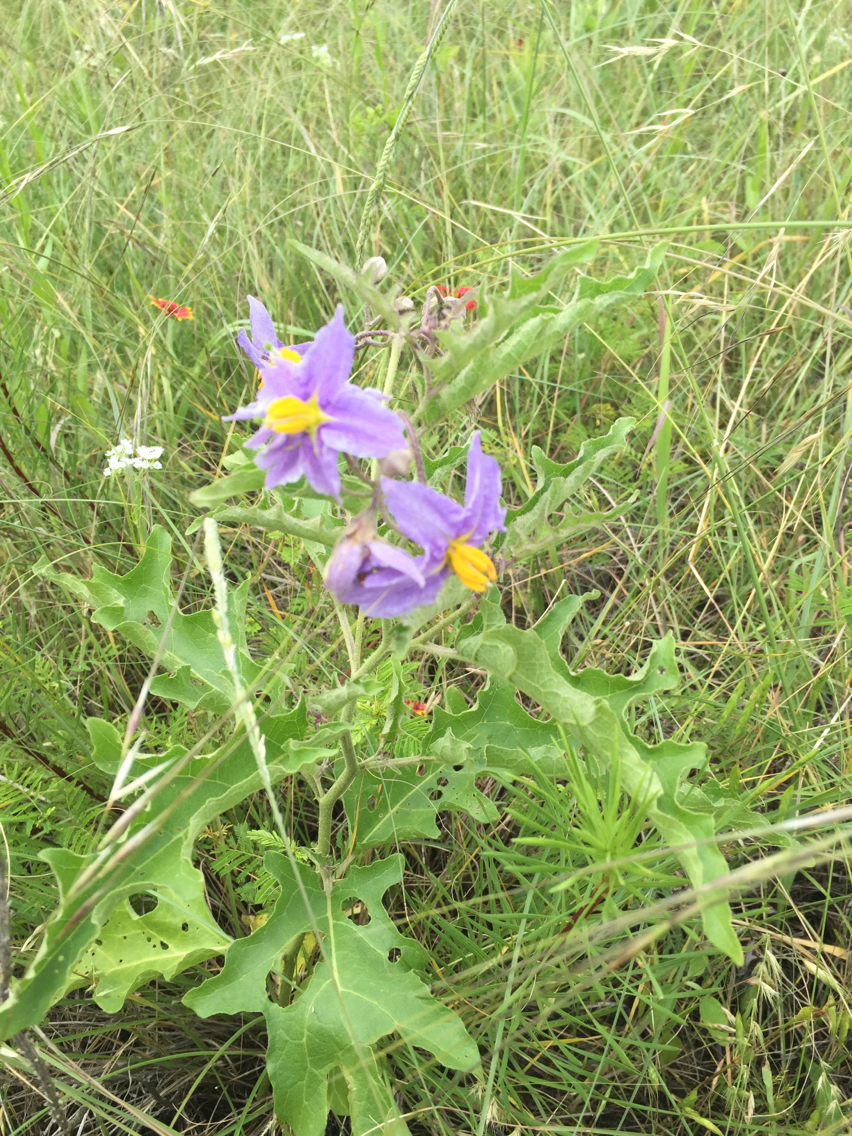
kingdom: Plantae
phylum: Tracheophyta
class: Magnoliopsida
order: Solanales
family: Solanaceae
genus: Solanum
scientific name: Solanum dimidiatum
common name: Carolina horse-nettle
